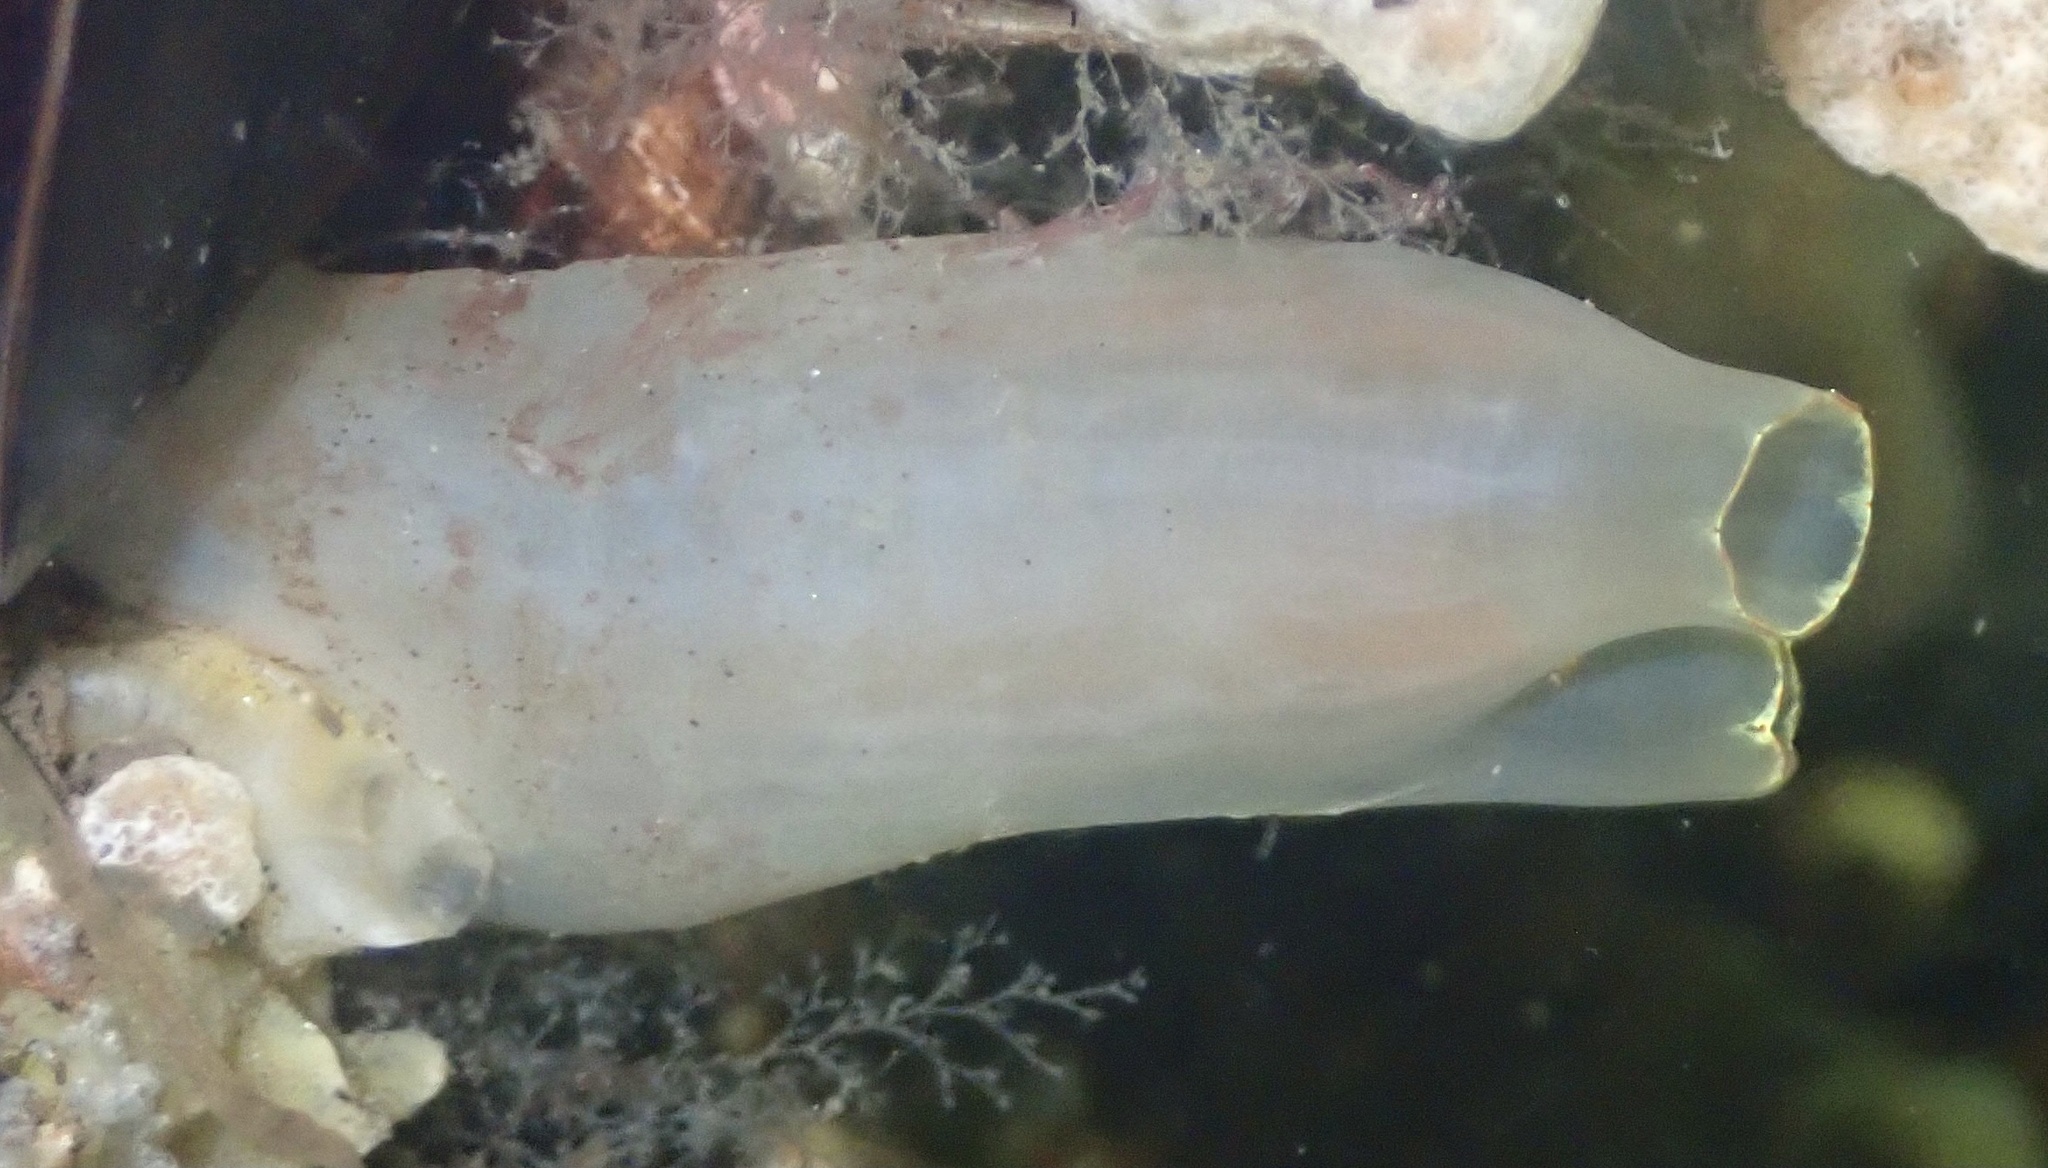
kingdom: Animalia
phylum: Chordata
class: Ascidiacea
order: Phlebobranchia
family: Cionidae
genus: Ciona
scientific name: Ciona intestinalis
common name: Vase tunicate
